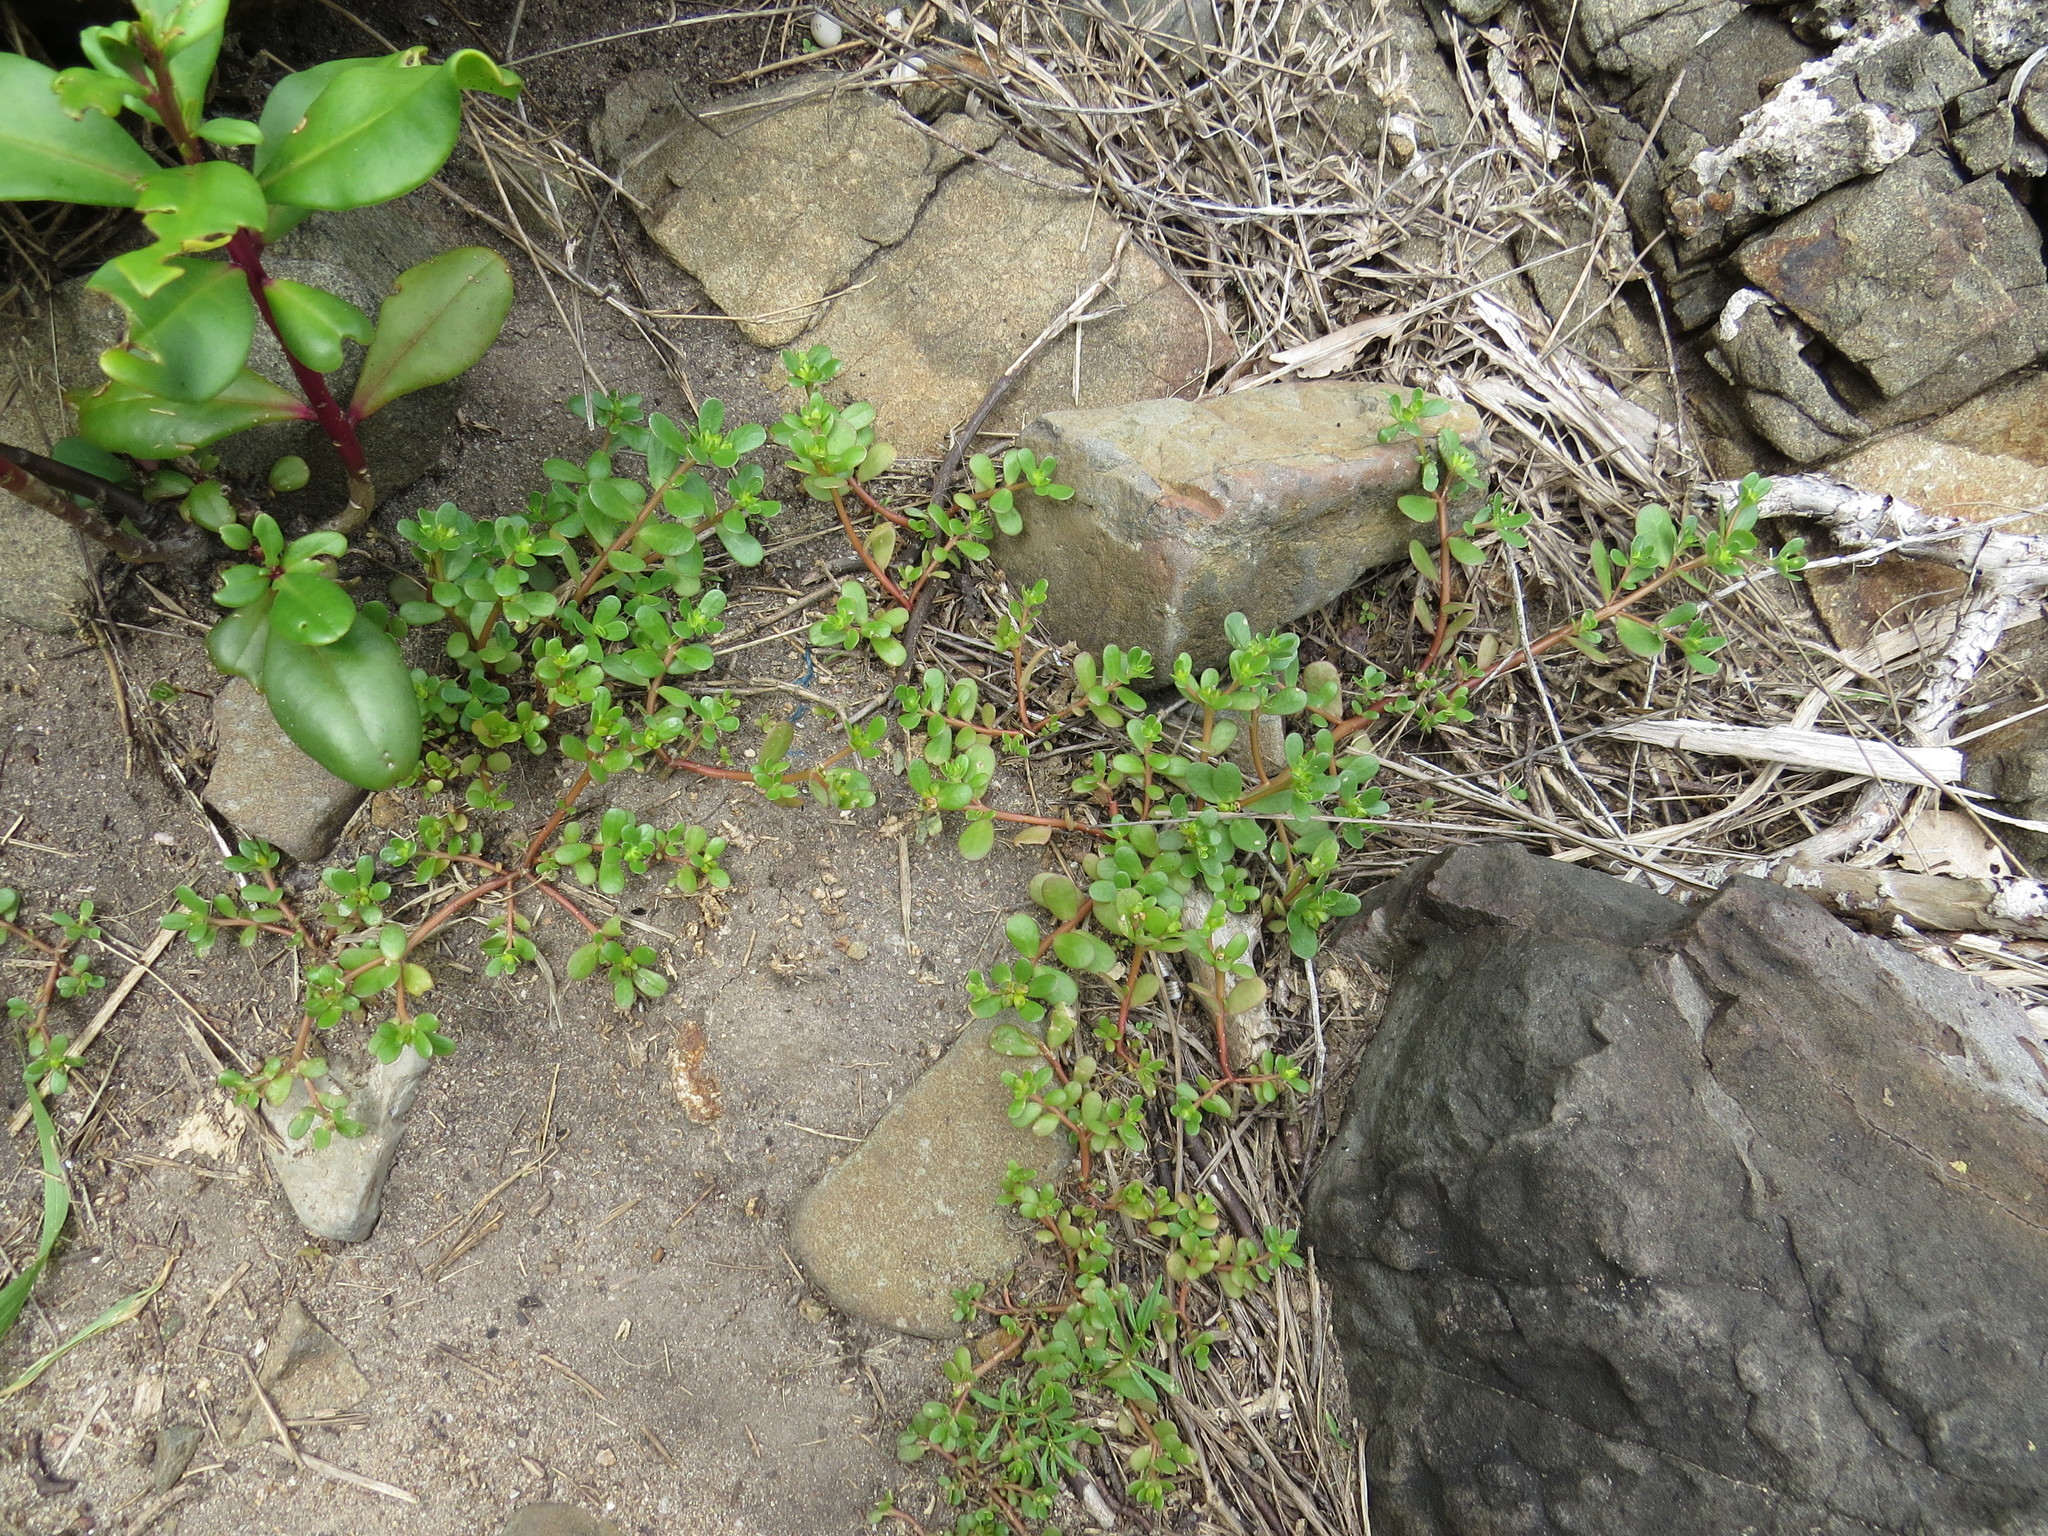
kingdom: Plantae
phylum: Tracheophyta
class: Magnoliopsida
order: Caryophyllales
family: Portulacaceae
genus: Portulaca
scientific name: Portulaca oleracea
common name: Common purslane
